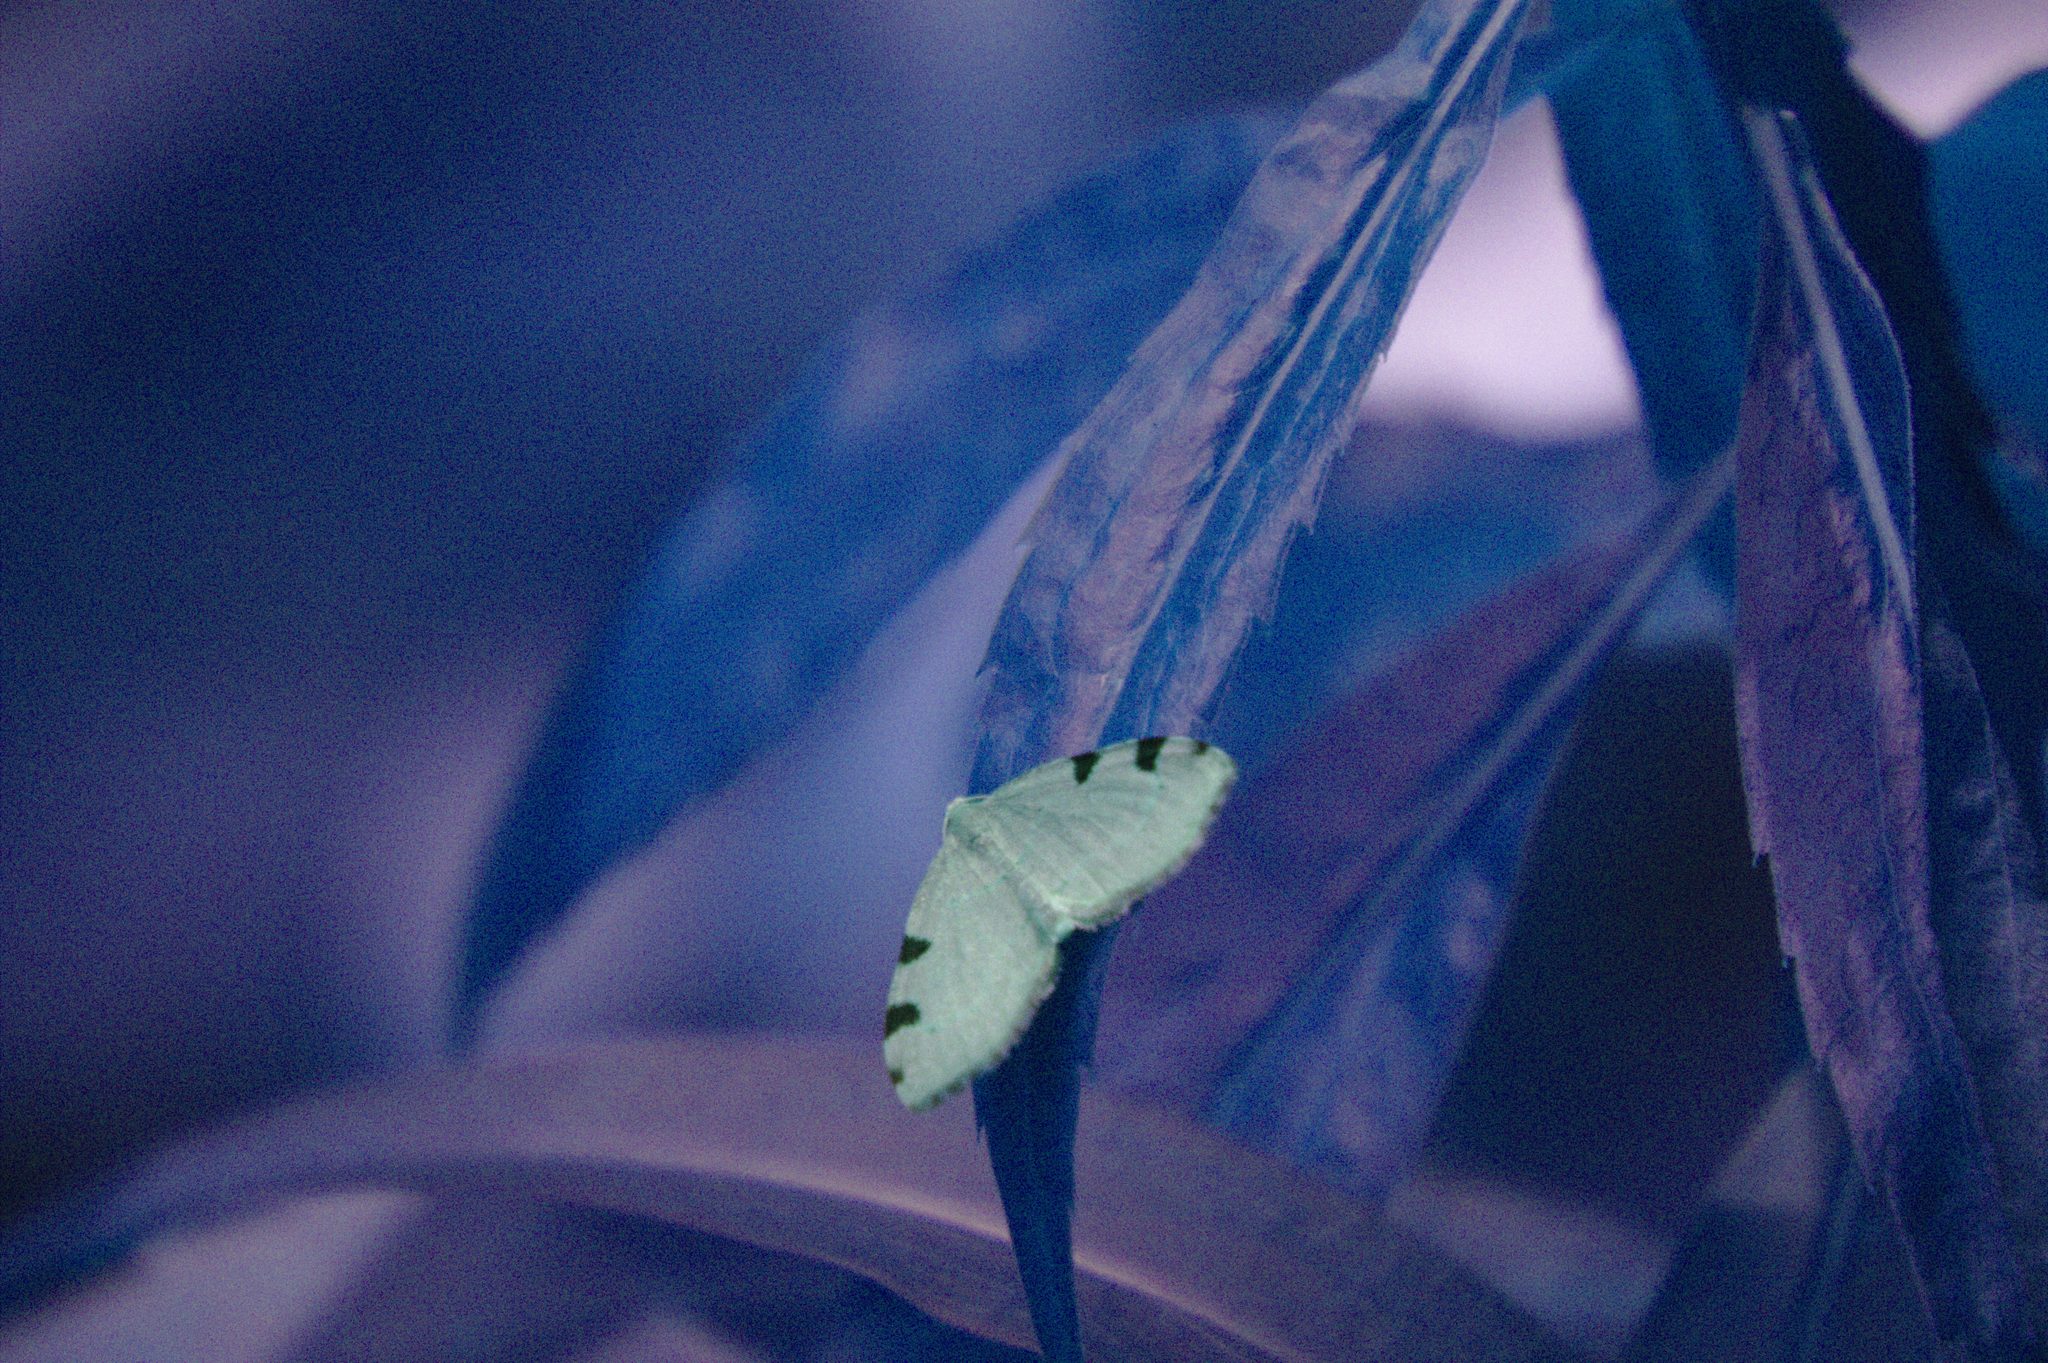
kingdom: Animalia
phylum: Arthropoda
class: Insecta
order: Lepidoptera
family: Geometridae
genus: Heterophleps
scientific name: Heterophleps triguttaria
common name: Three-spotted fillip
